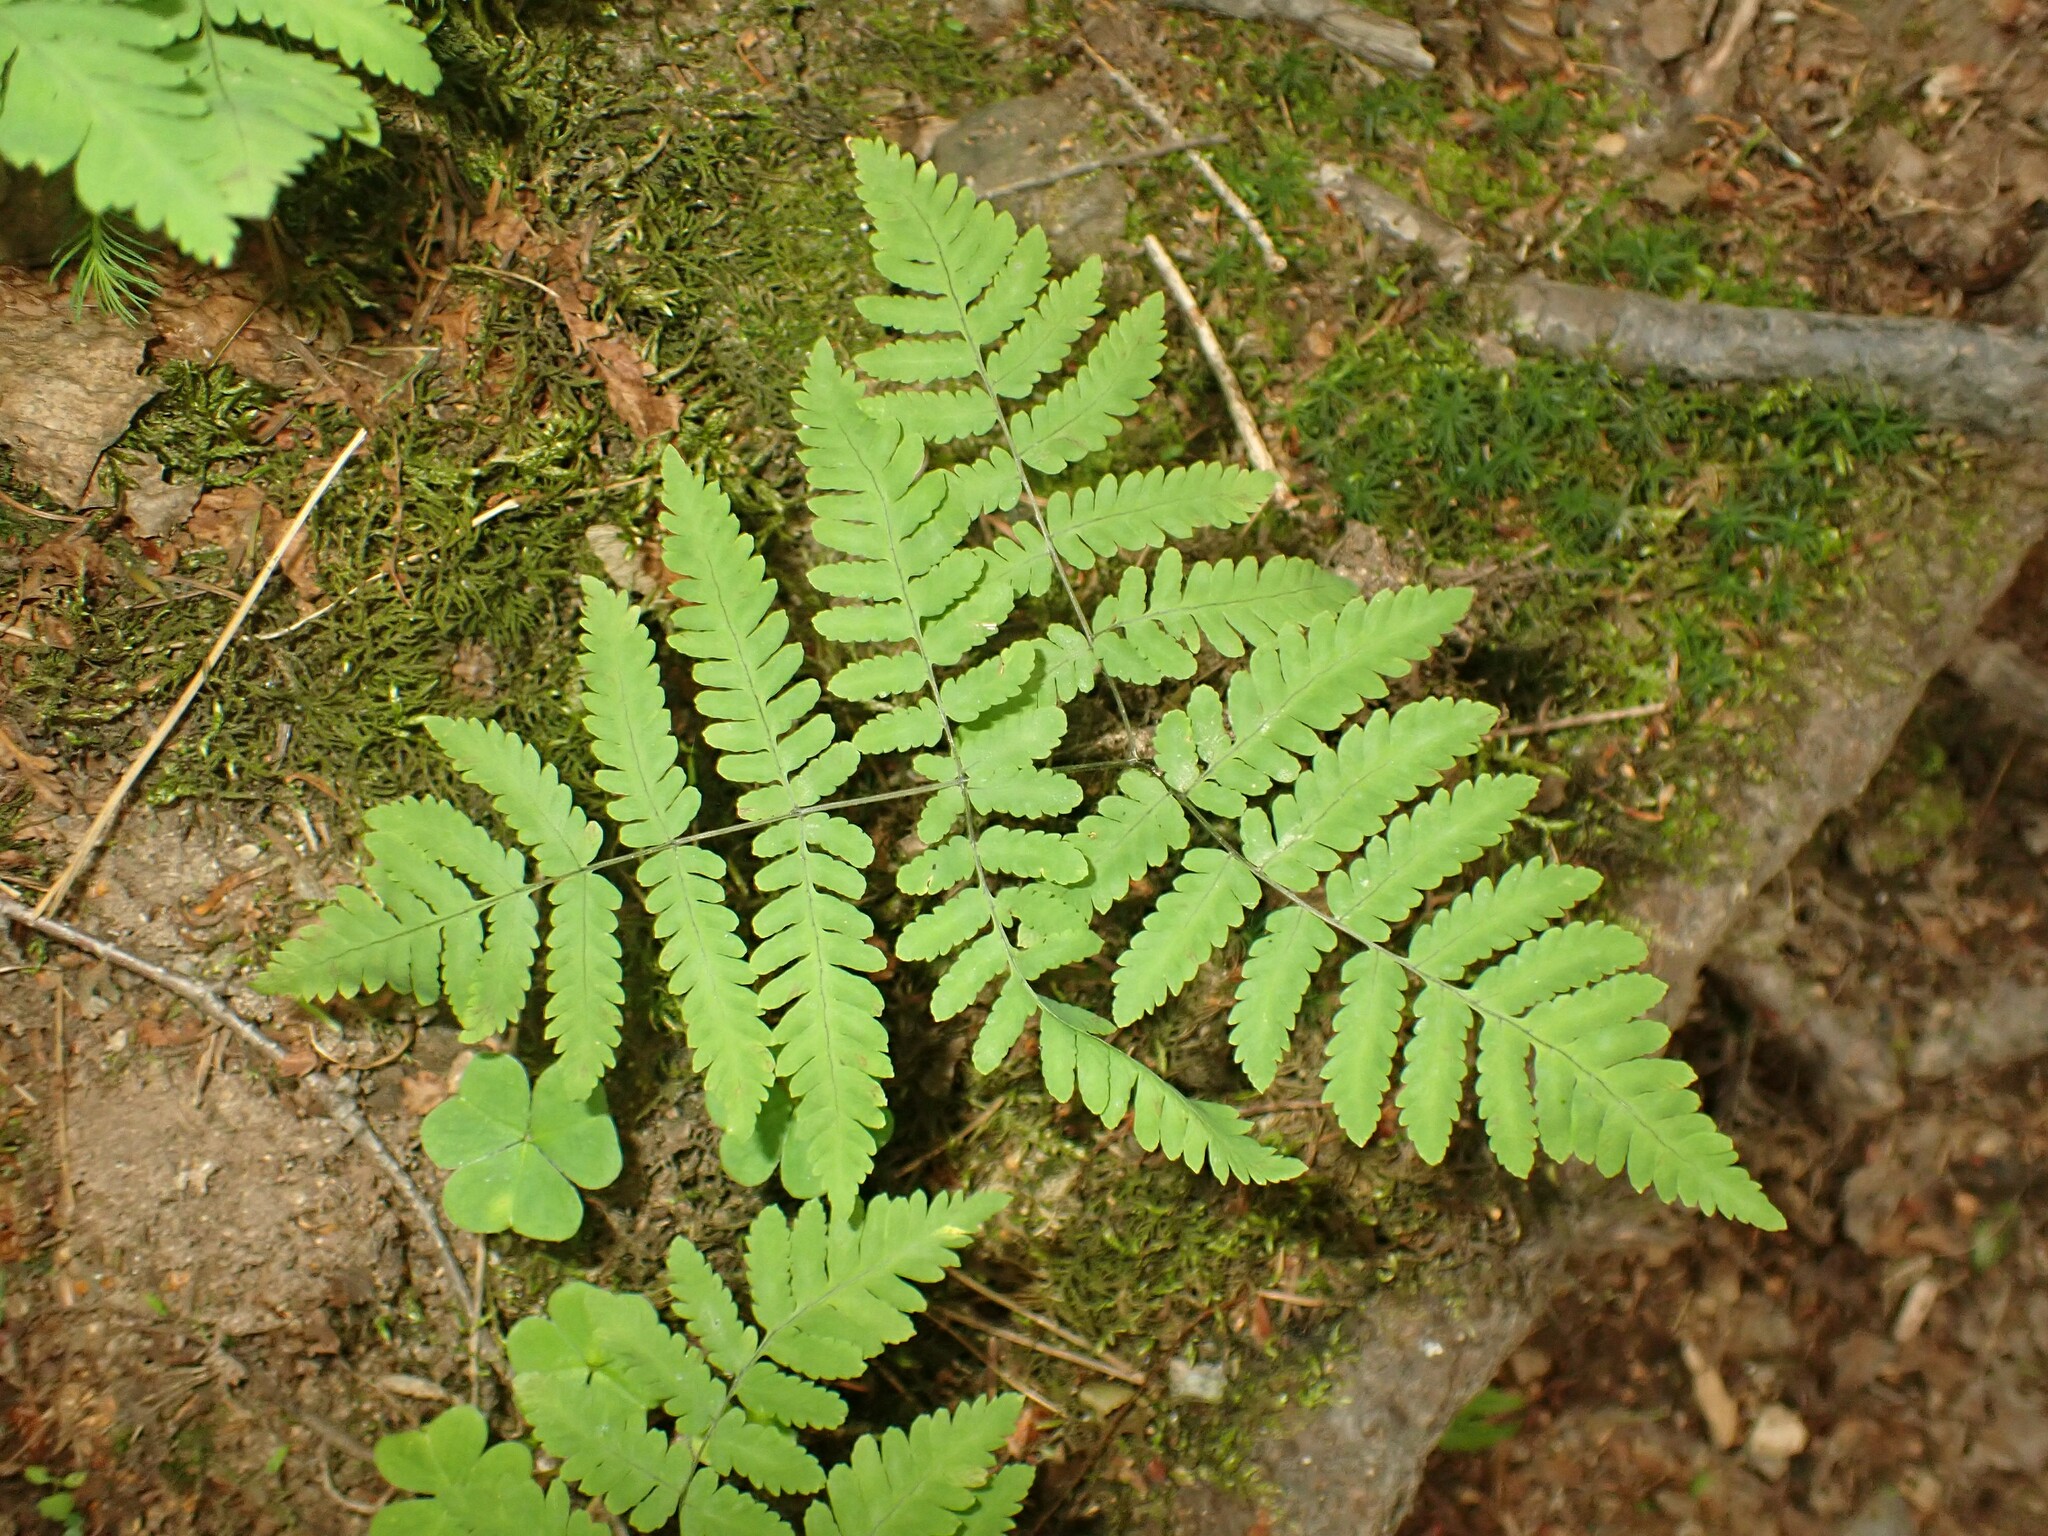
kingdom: Plantae
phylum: Tracheophyta
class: Polypodiopsida
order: Polypodiales
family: Cystopteridaceae
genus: Gymnocarpium
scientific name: Gymnocarpium dryopteris
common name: Oak fern
